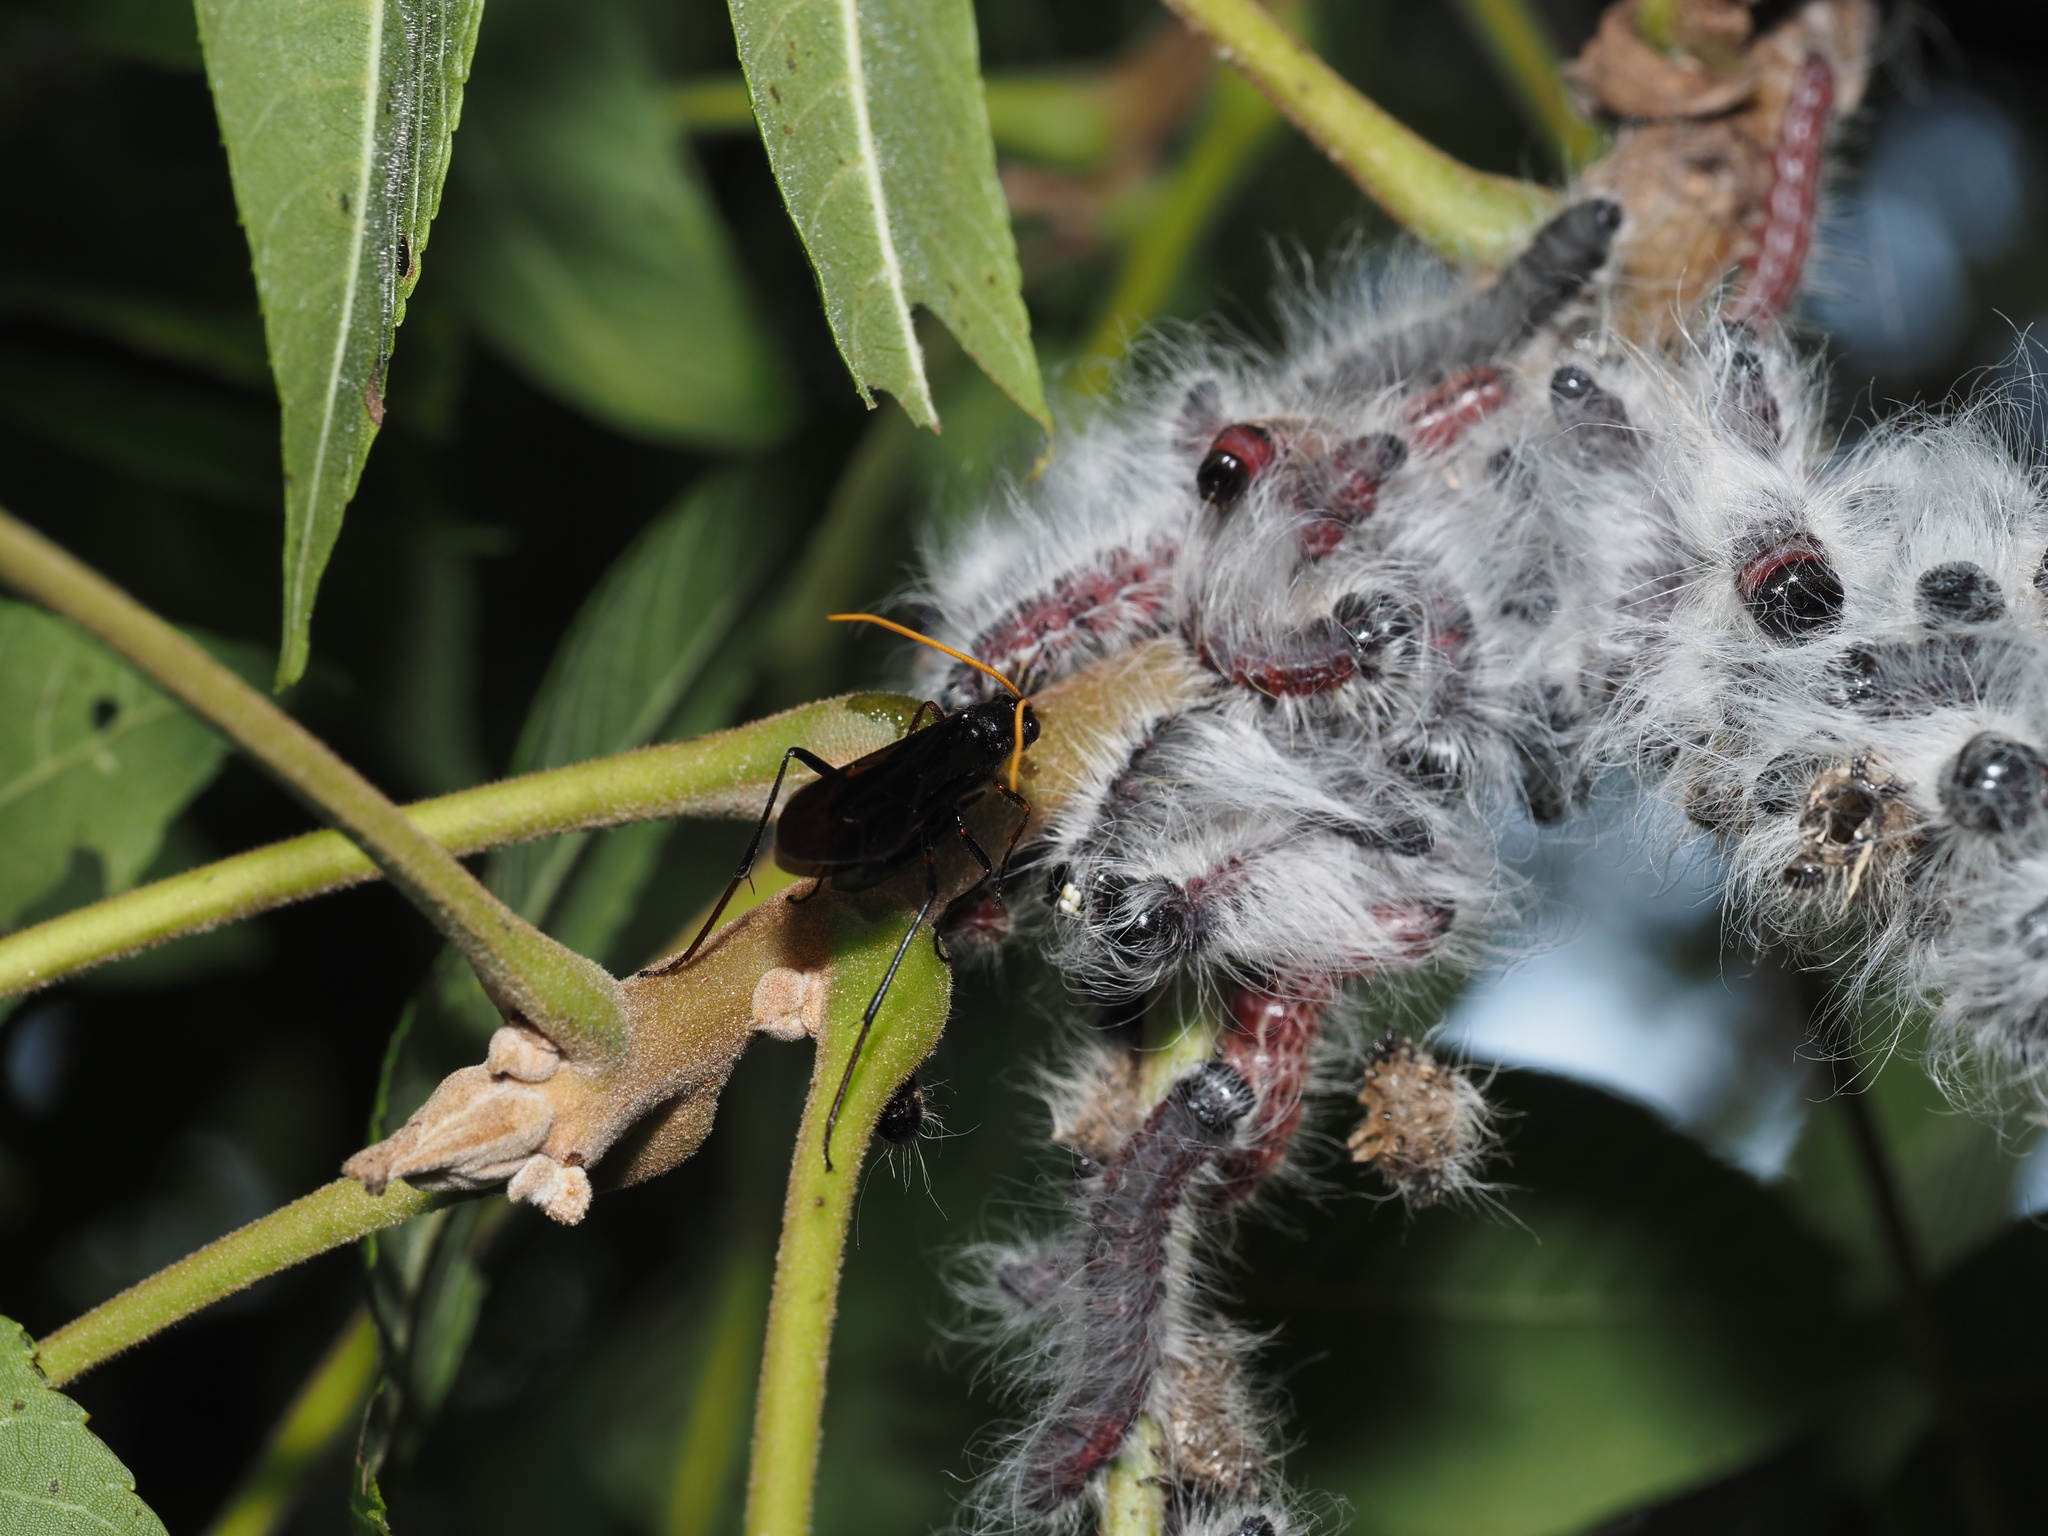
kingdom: Animalia
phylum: Arthropoda
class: Insecta
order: Lepidoptera
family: Notodontidae
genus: Datana
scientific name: Datana integerrima
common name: Walnut caterpillar
